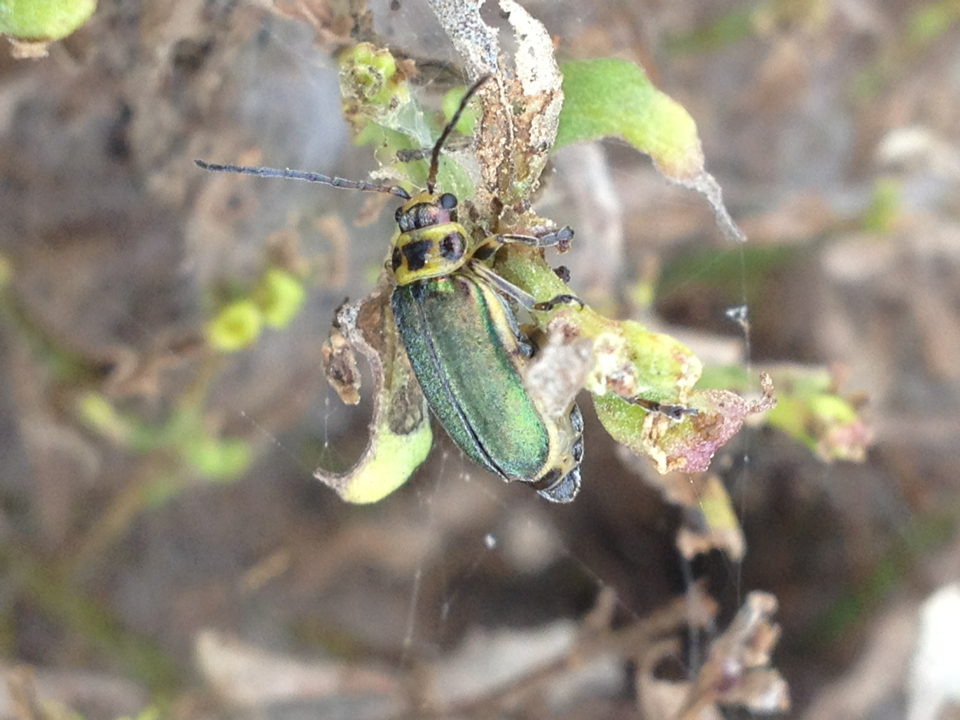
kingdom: Animalia
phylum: Arthropoda
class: Insecta
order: Coleoptera
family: Chrysomelidae
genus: Trirhabda
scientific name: Trirhabda flavolimbata
